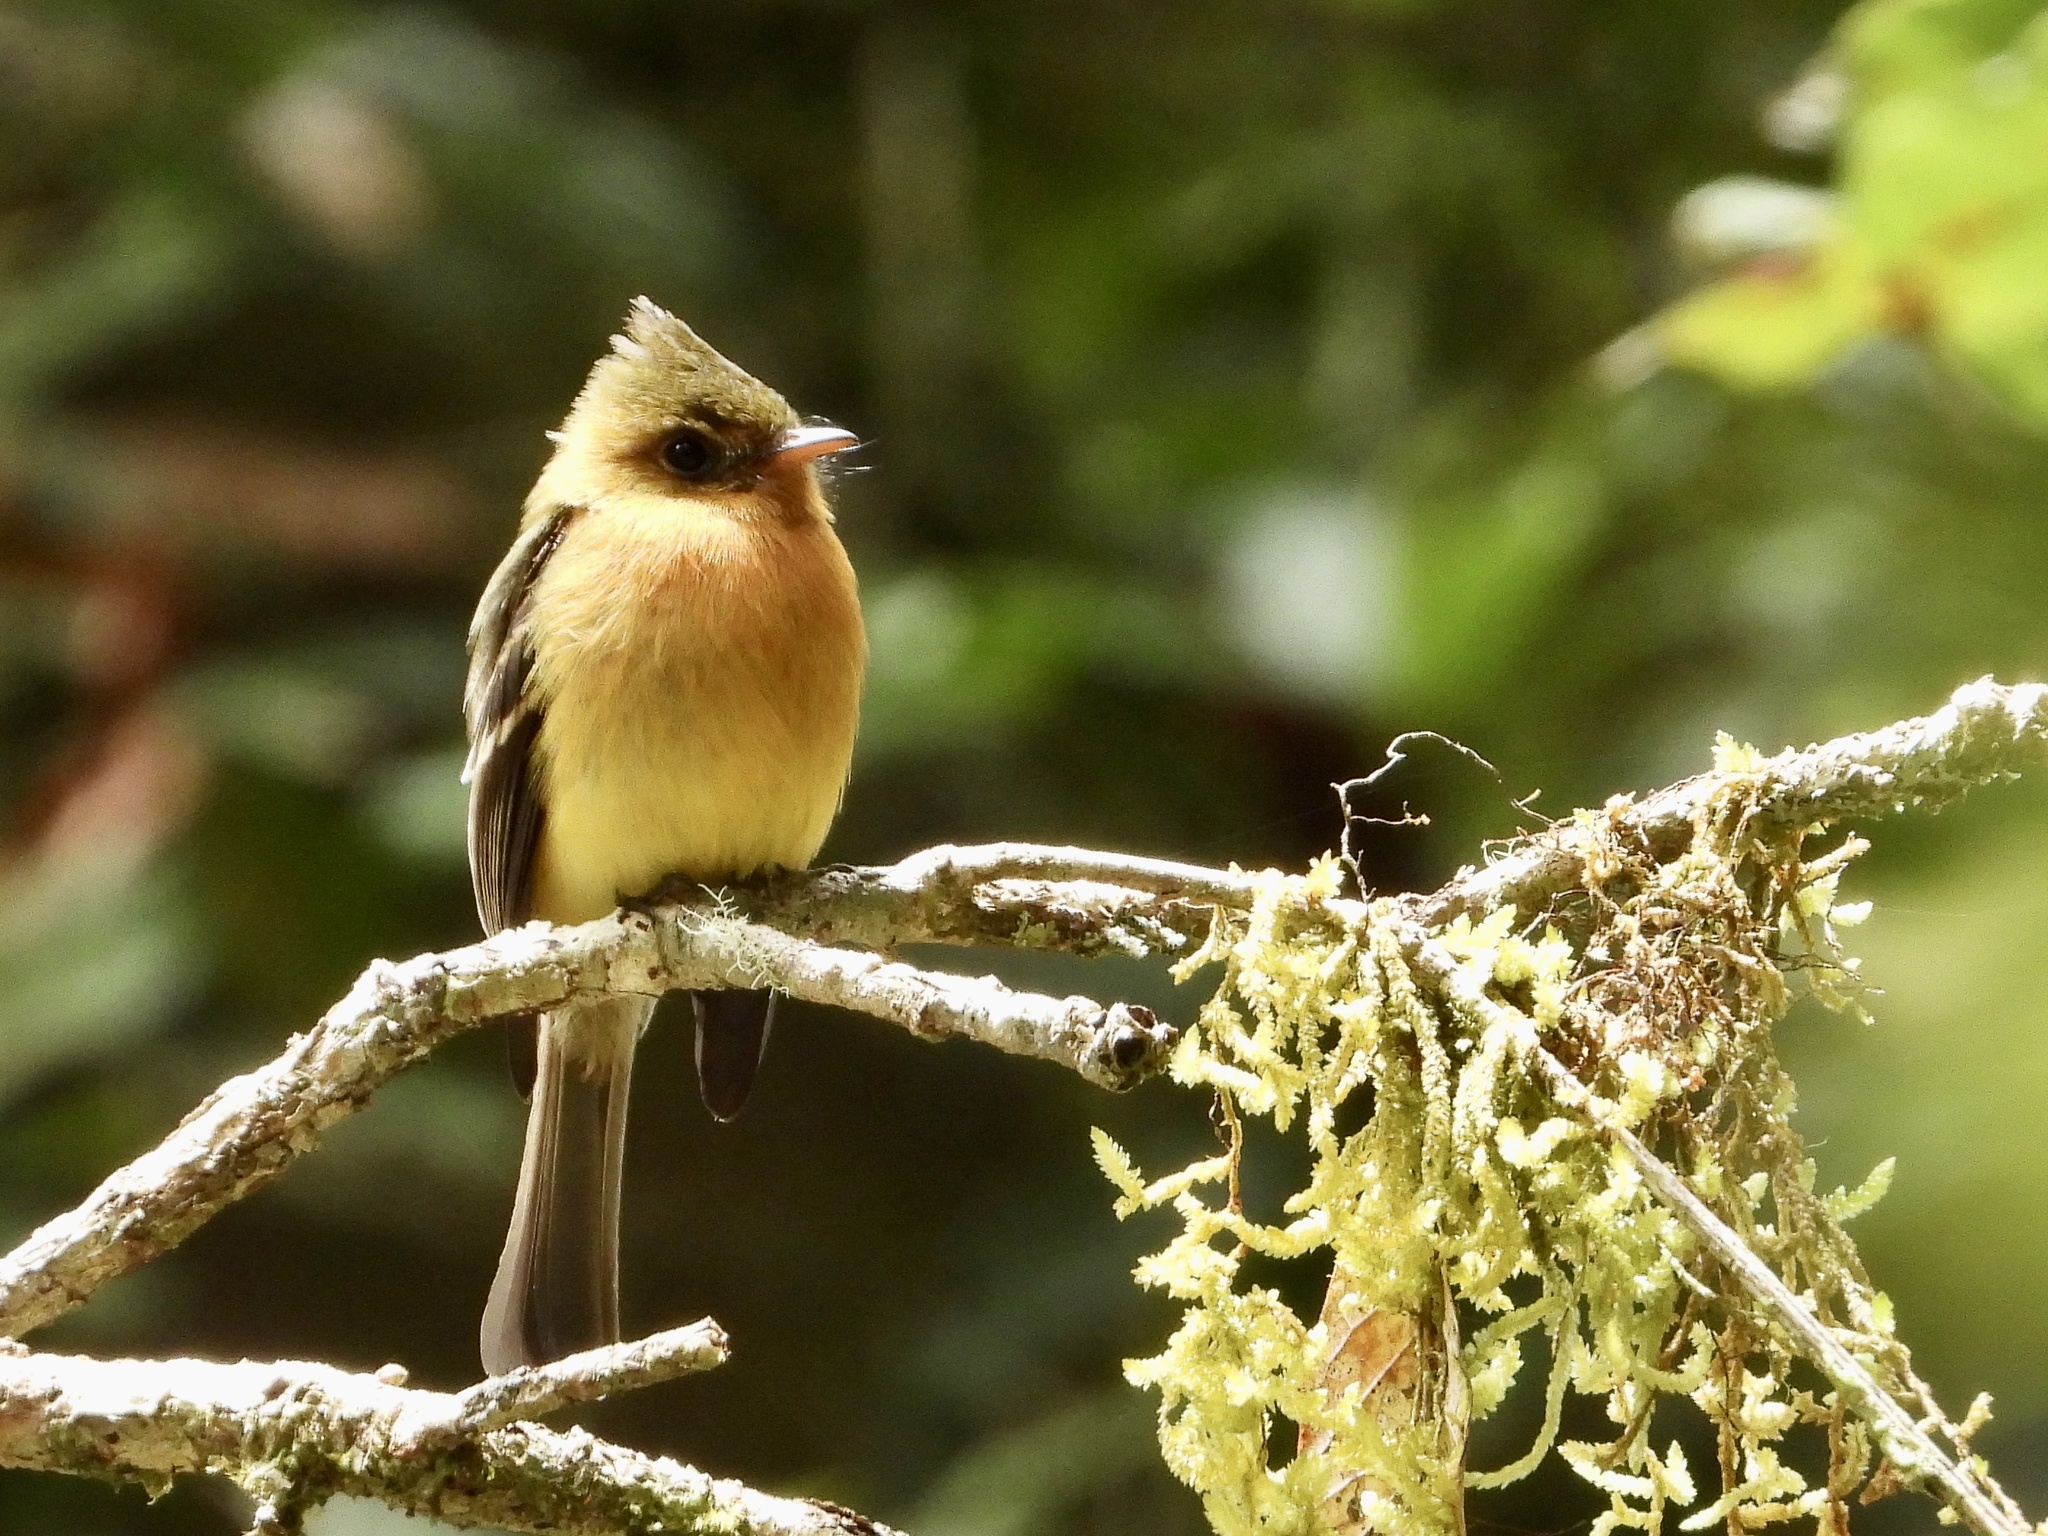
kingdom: Animalia
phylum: Chordata
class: Aves
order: Passeriformes
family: Tyrannidae
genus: Mitrephanes
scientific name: Mitrephanes phaeocercus
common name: Northern tufted flycatcher
